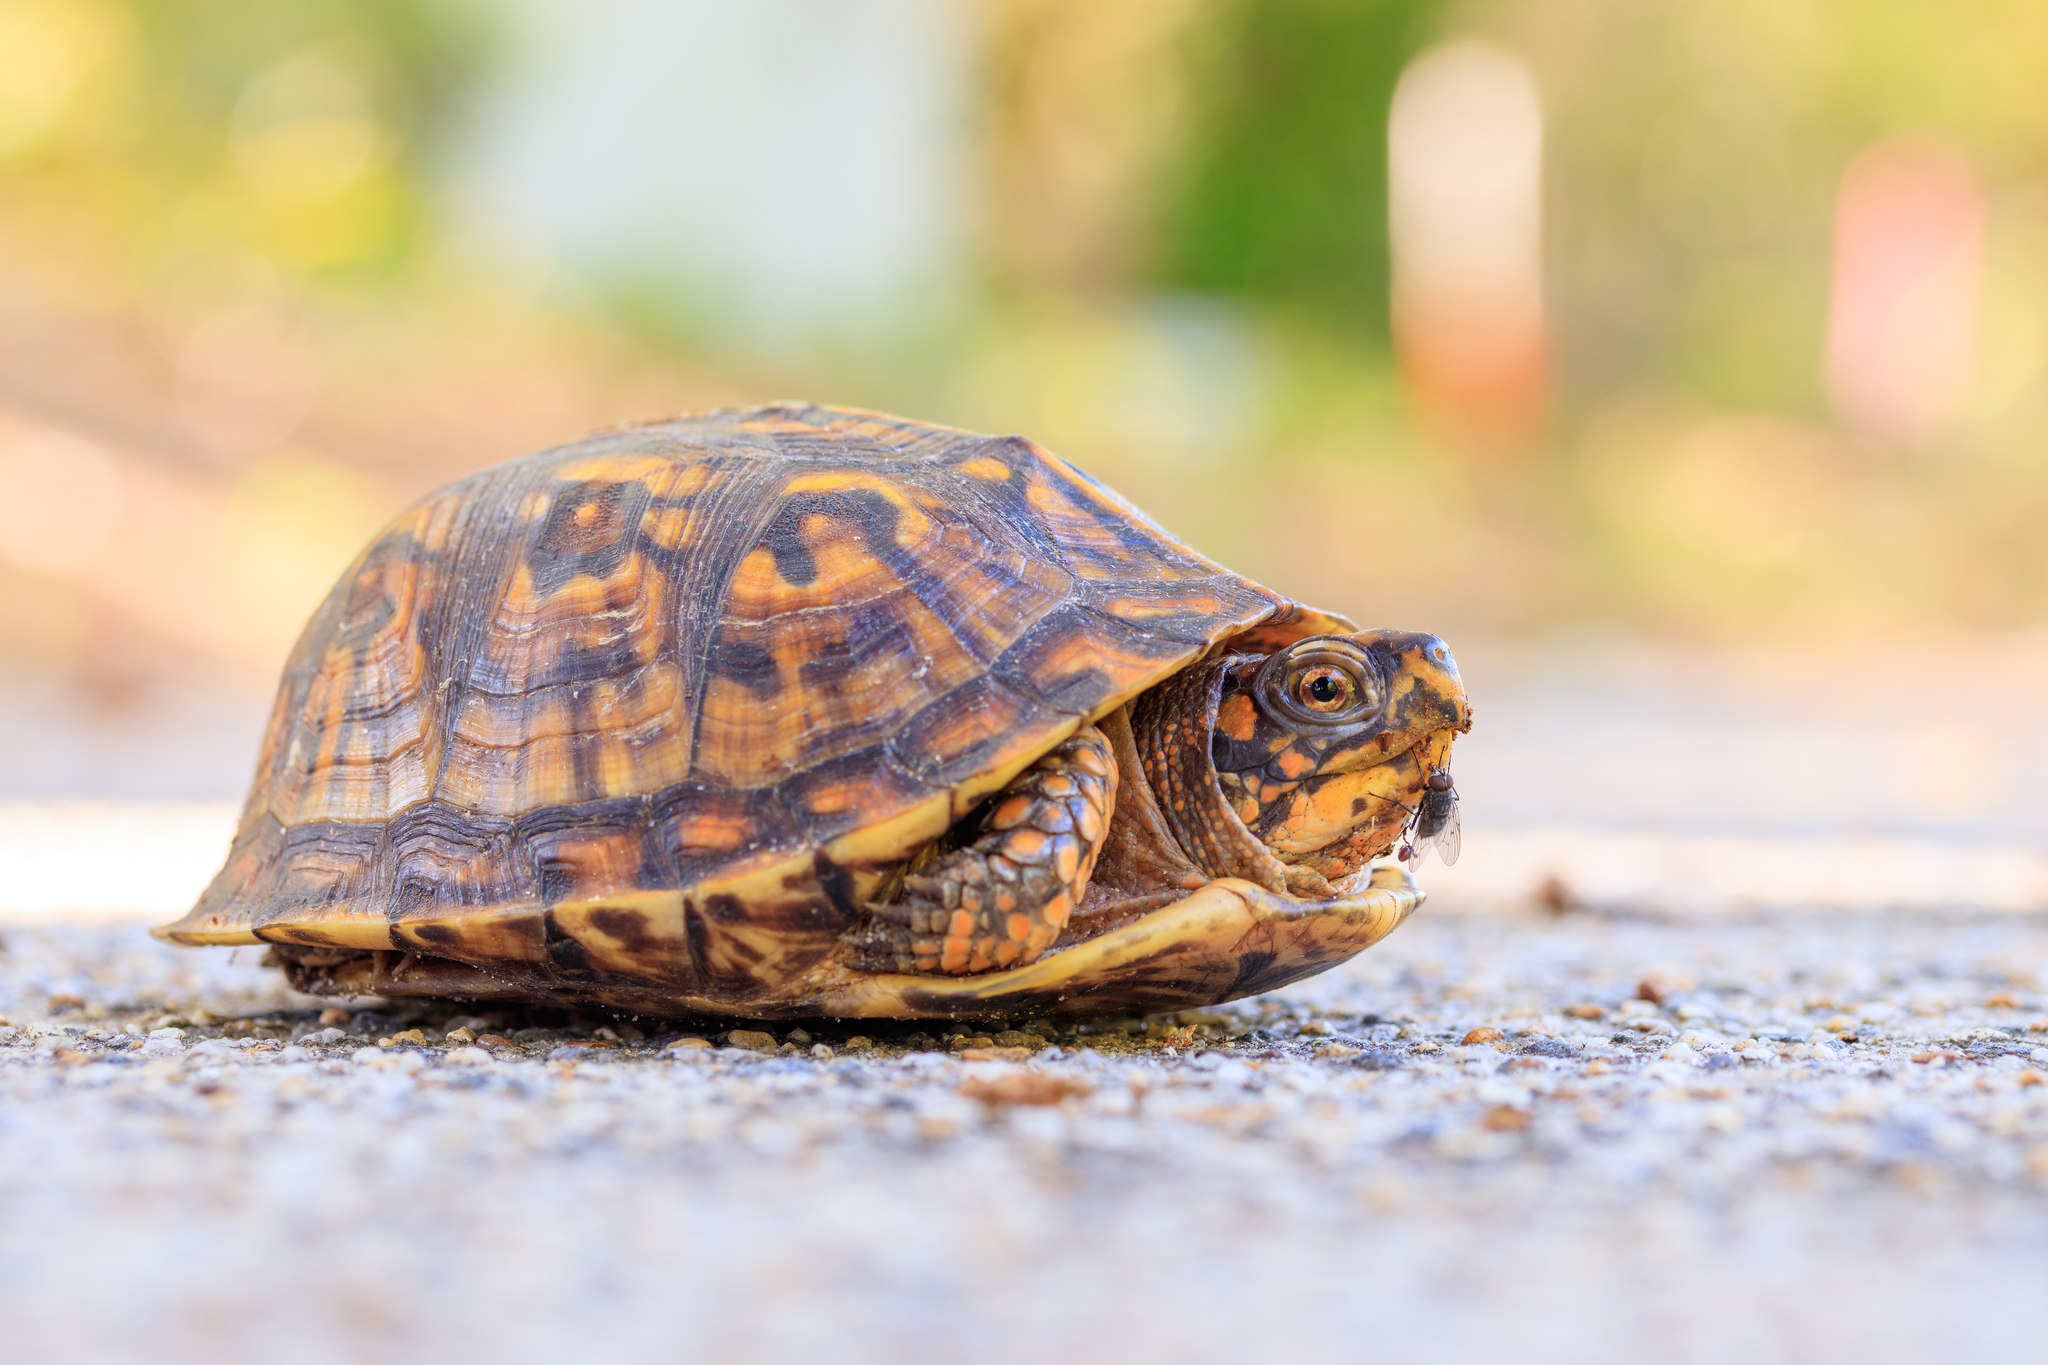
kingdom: Animalia
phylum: Chordata
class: Testudines
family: Emydidae
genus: Terrapene
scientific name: Terrapene carolina
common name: Common box turtle
